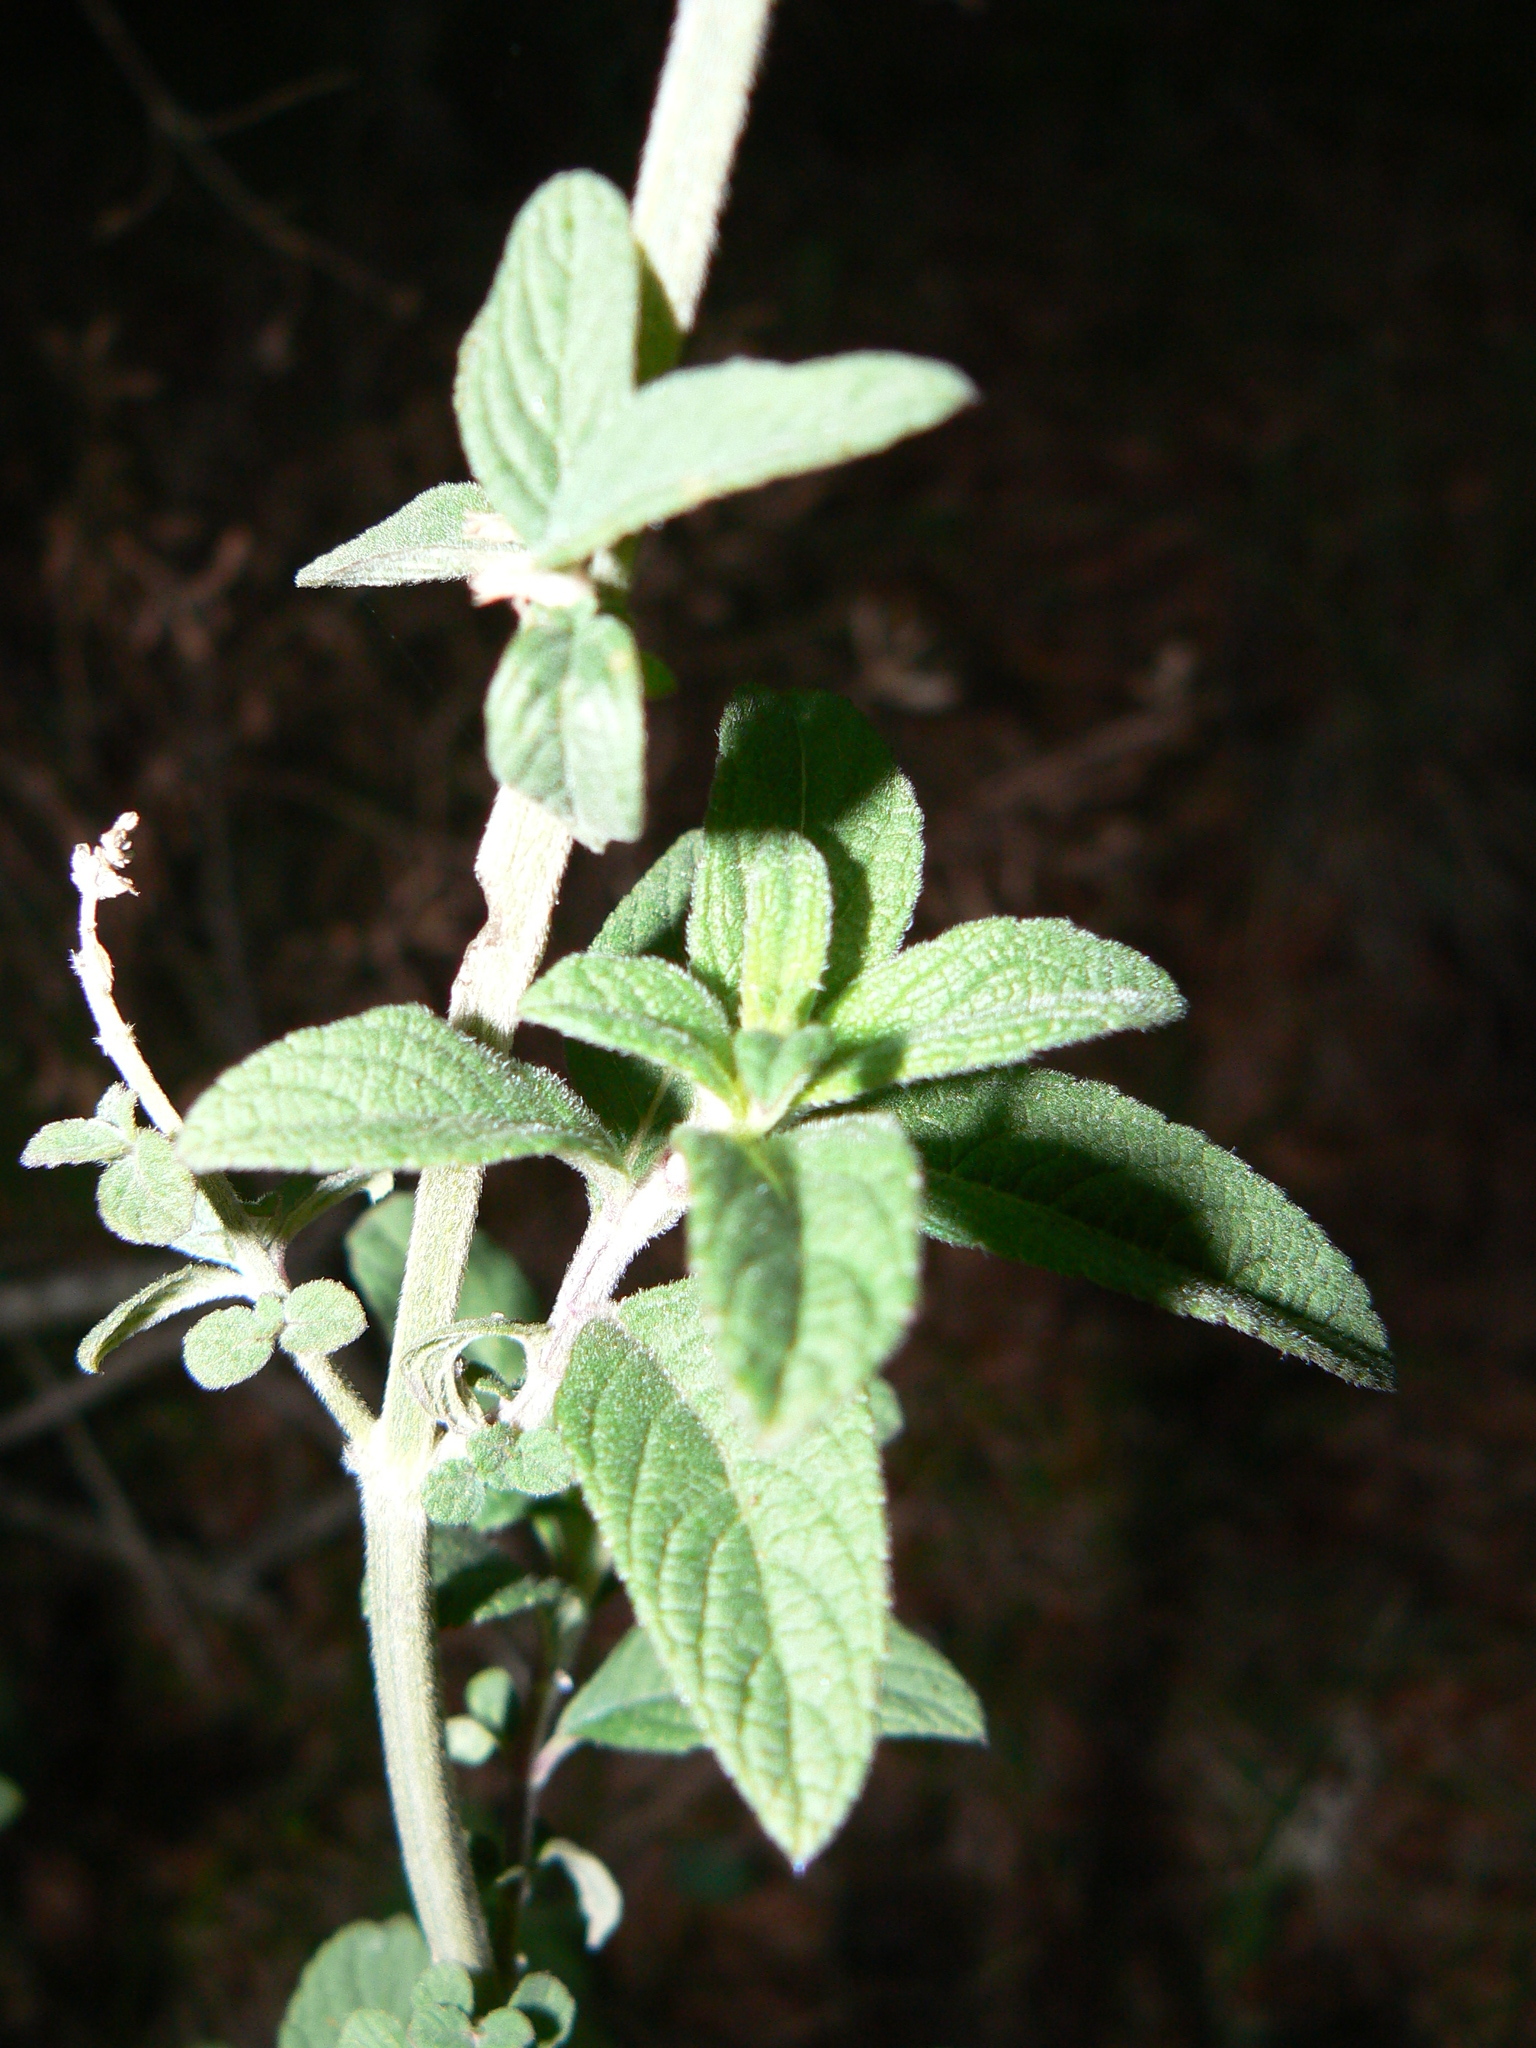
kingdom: Plantae
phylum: Tracheophyta
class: Magnoliopsida
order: Lamiales
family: Lamiaceae
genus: Salvia
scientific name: Salvia lavanduloides
